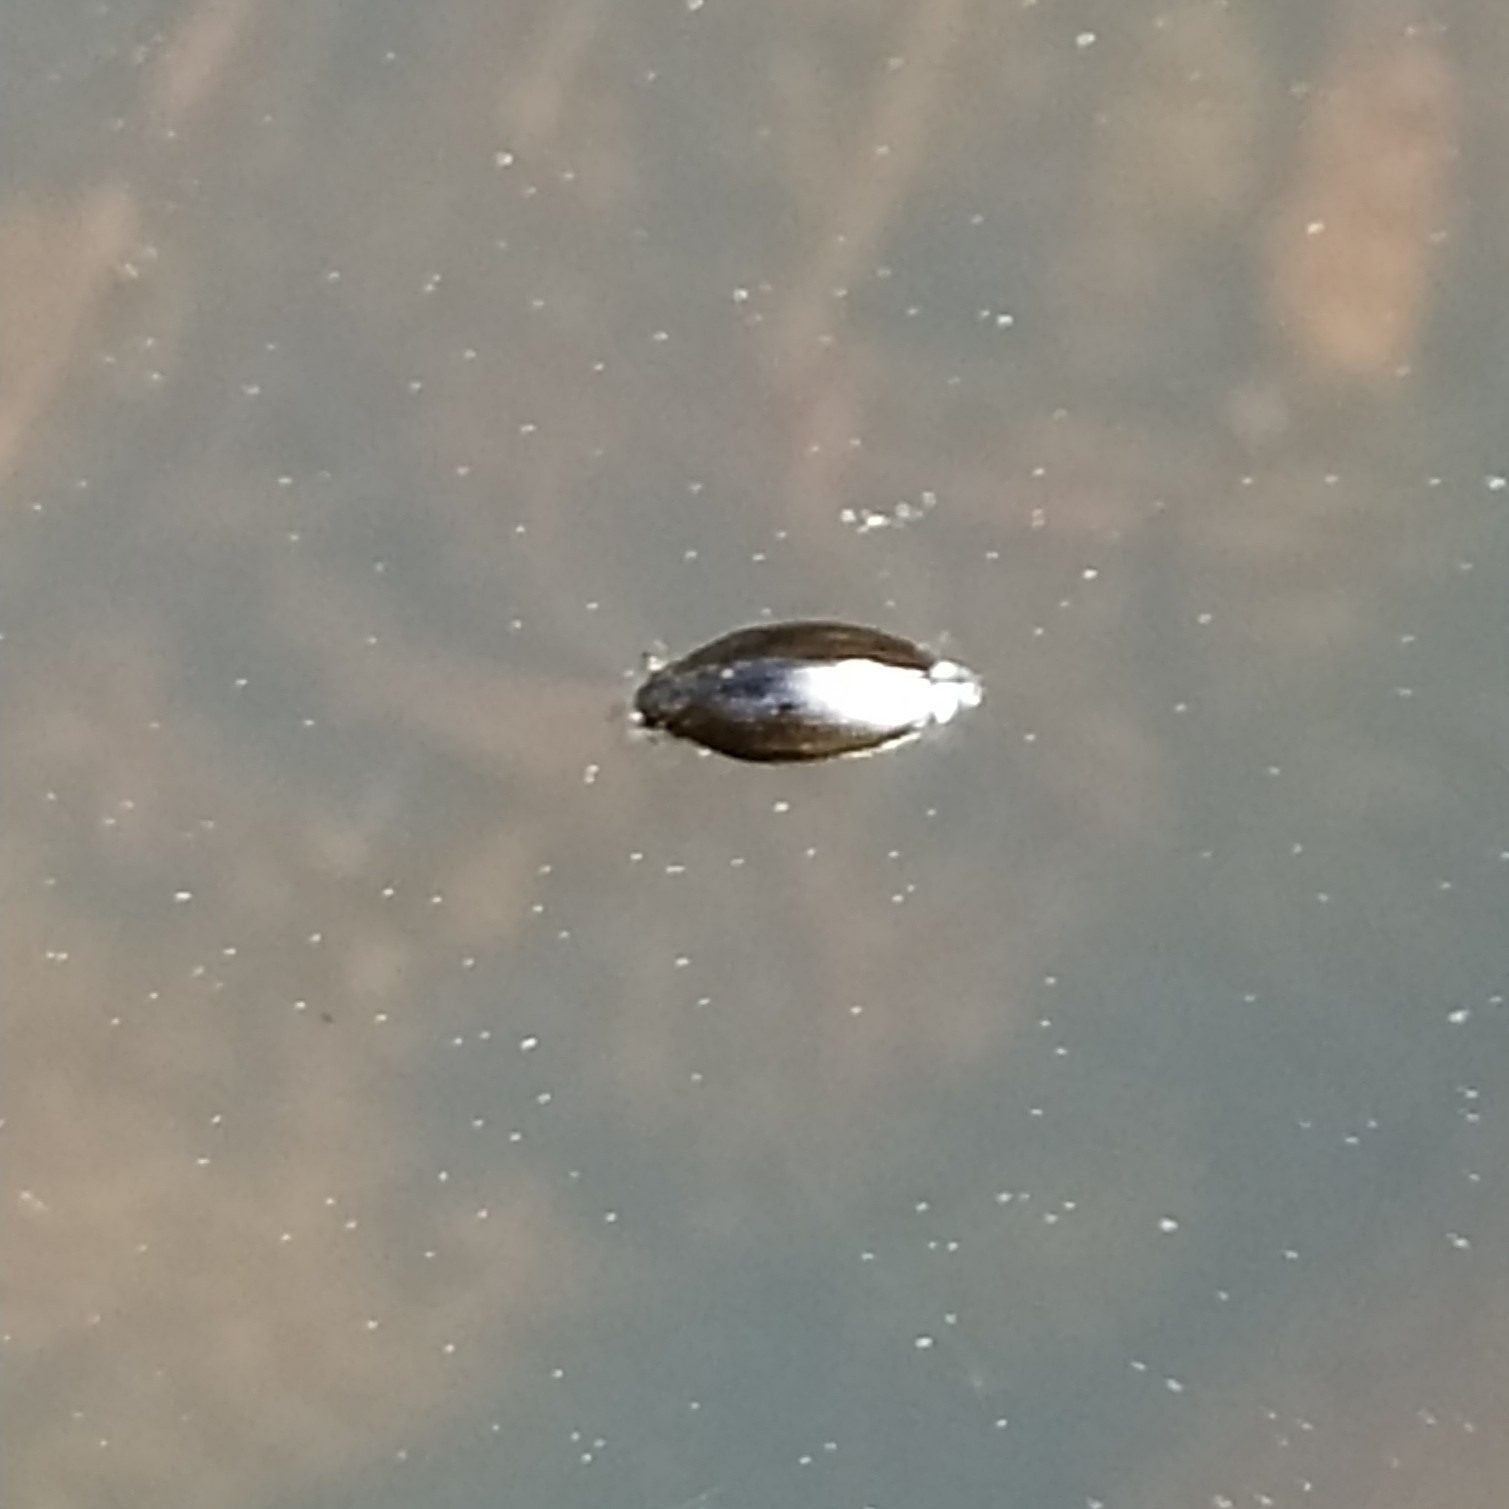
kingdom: Animalia
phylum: Arthropoda
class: Insecta
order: Coleoptera
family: Gyrinidae
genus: Gyrinus
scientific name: Gyrinus
